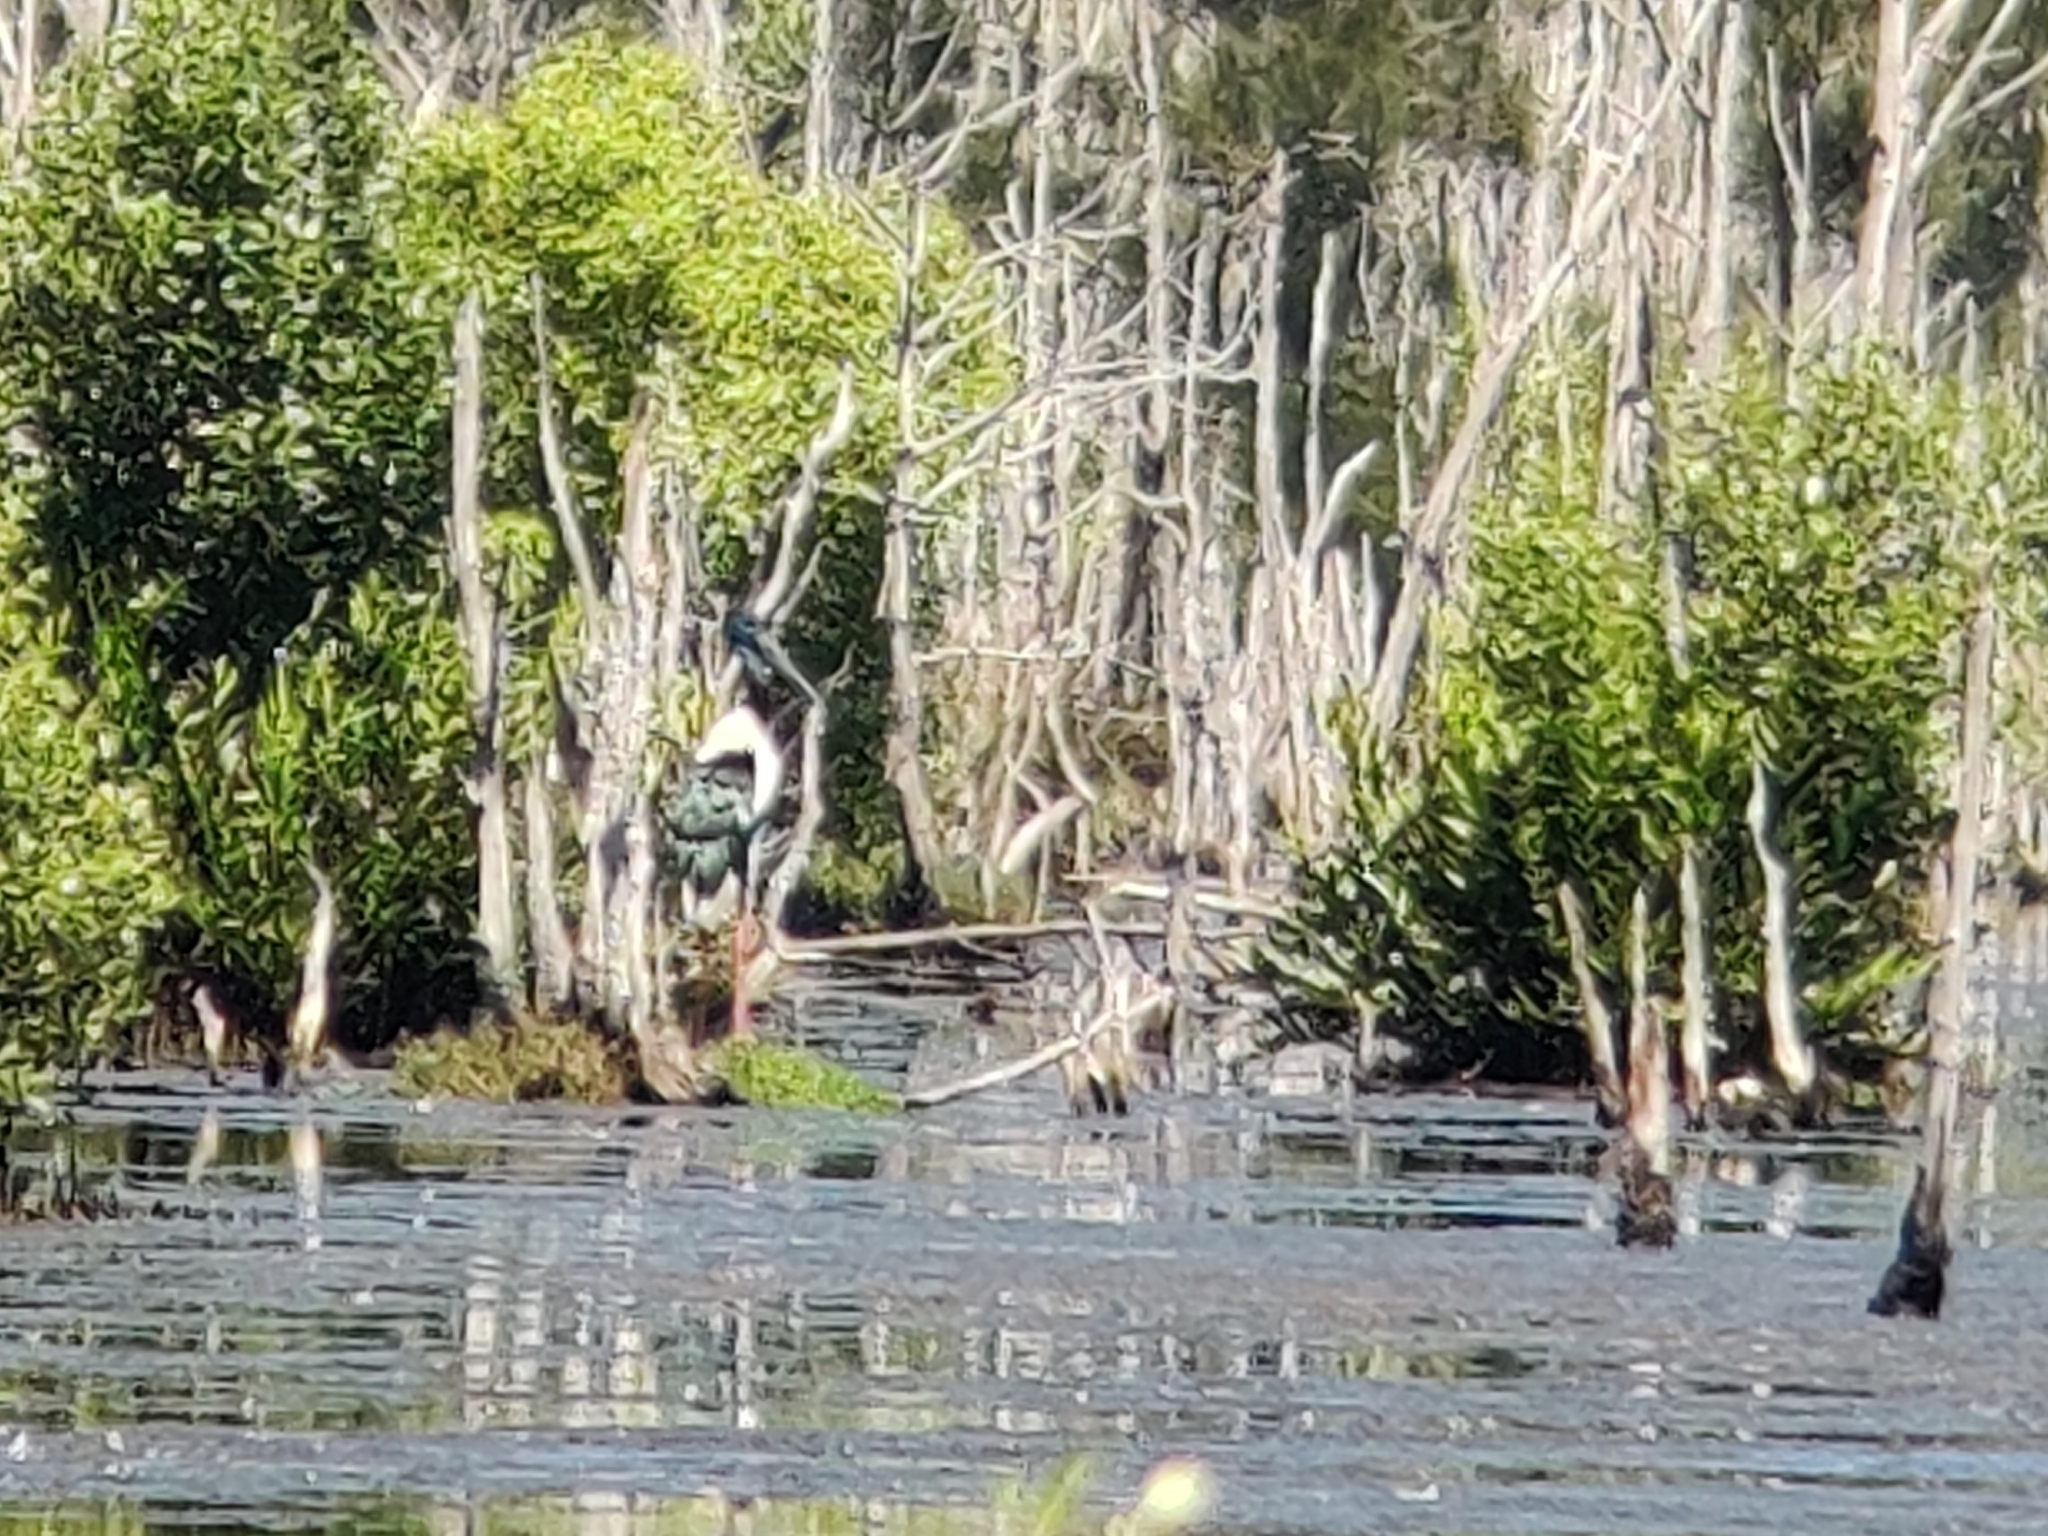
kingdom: Animalia
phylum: Chordata
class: Aves
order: Ciconiiformes
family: Ciconiidae
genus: Ephippiorhynchus
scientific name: Ephippiorhynchus asiaticus
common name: Black-necked stork
